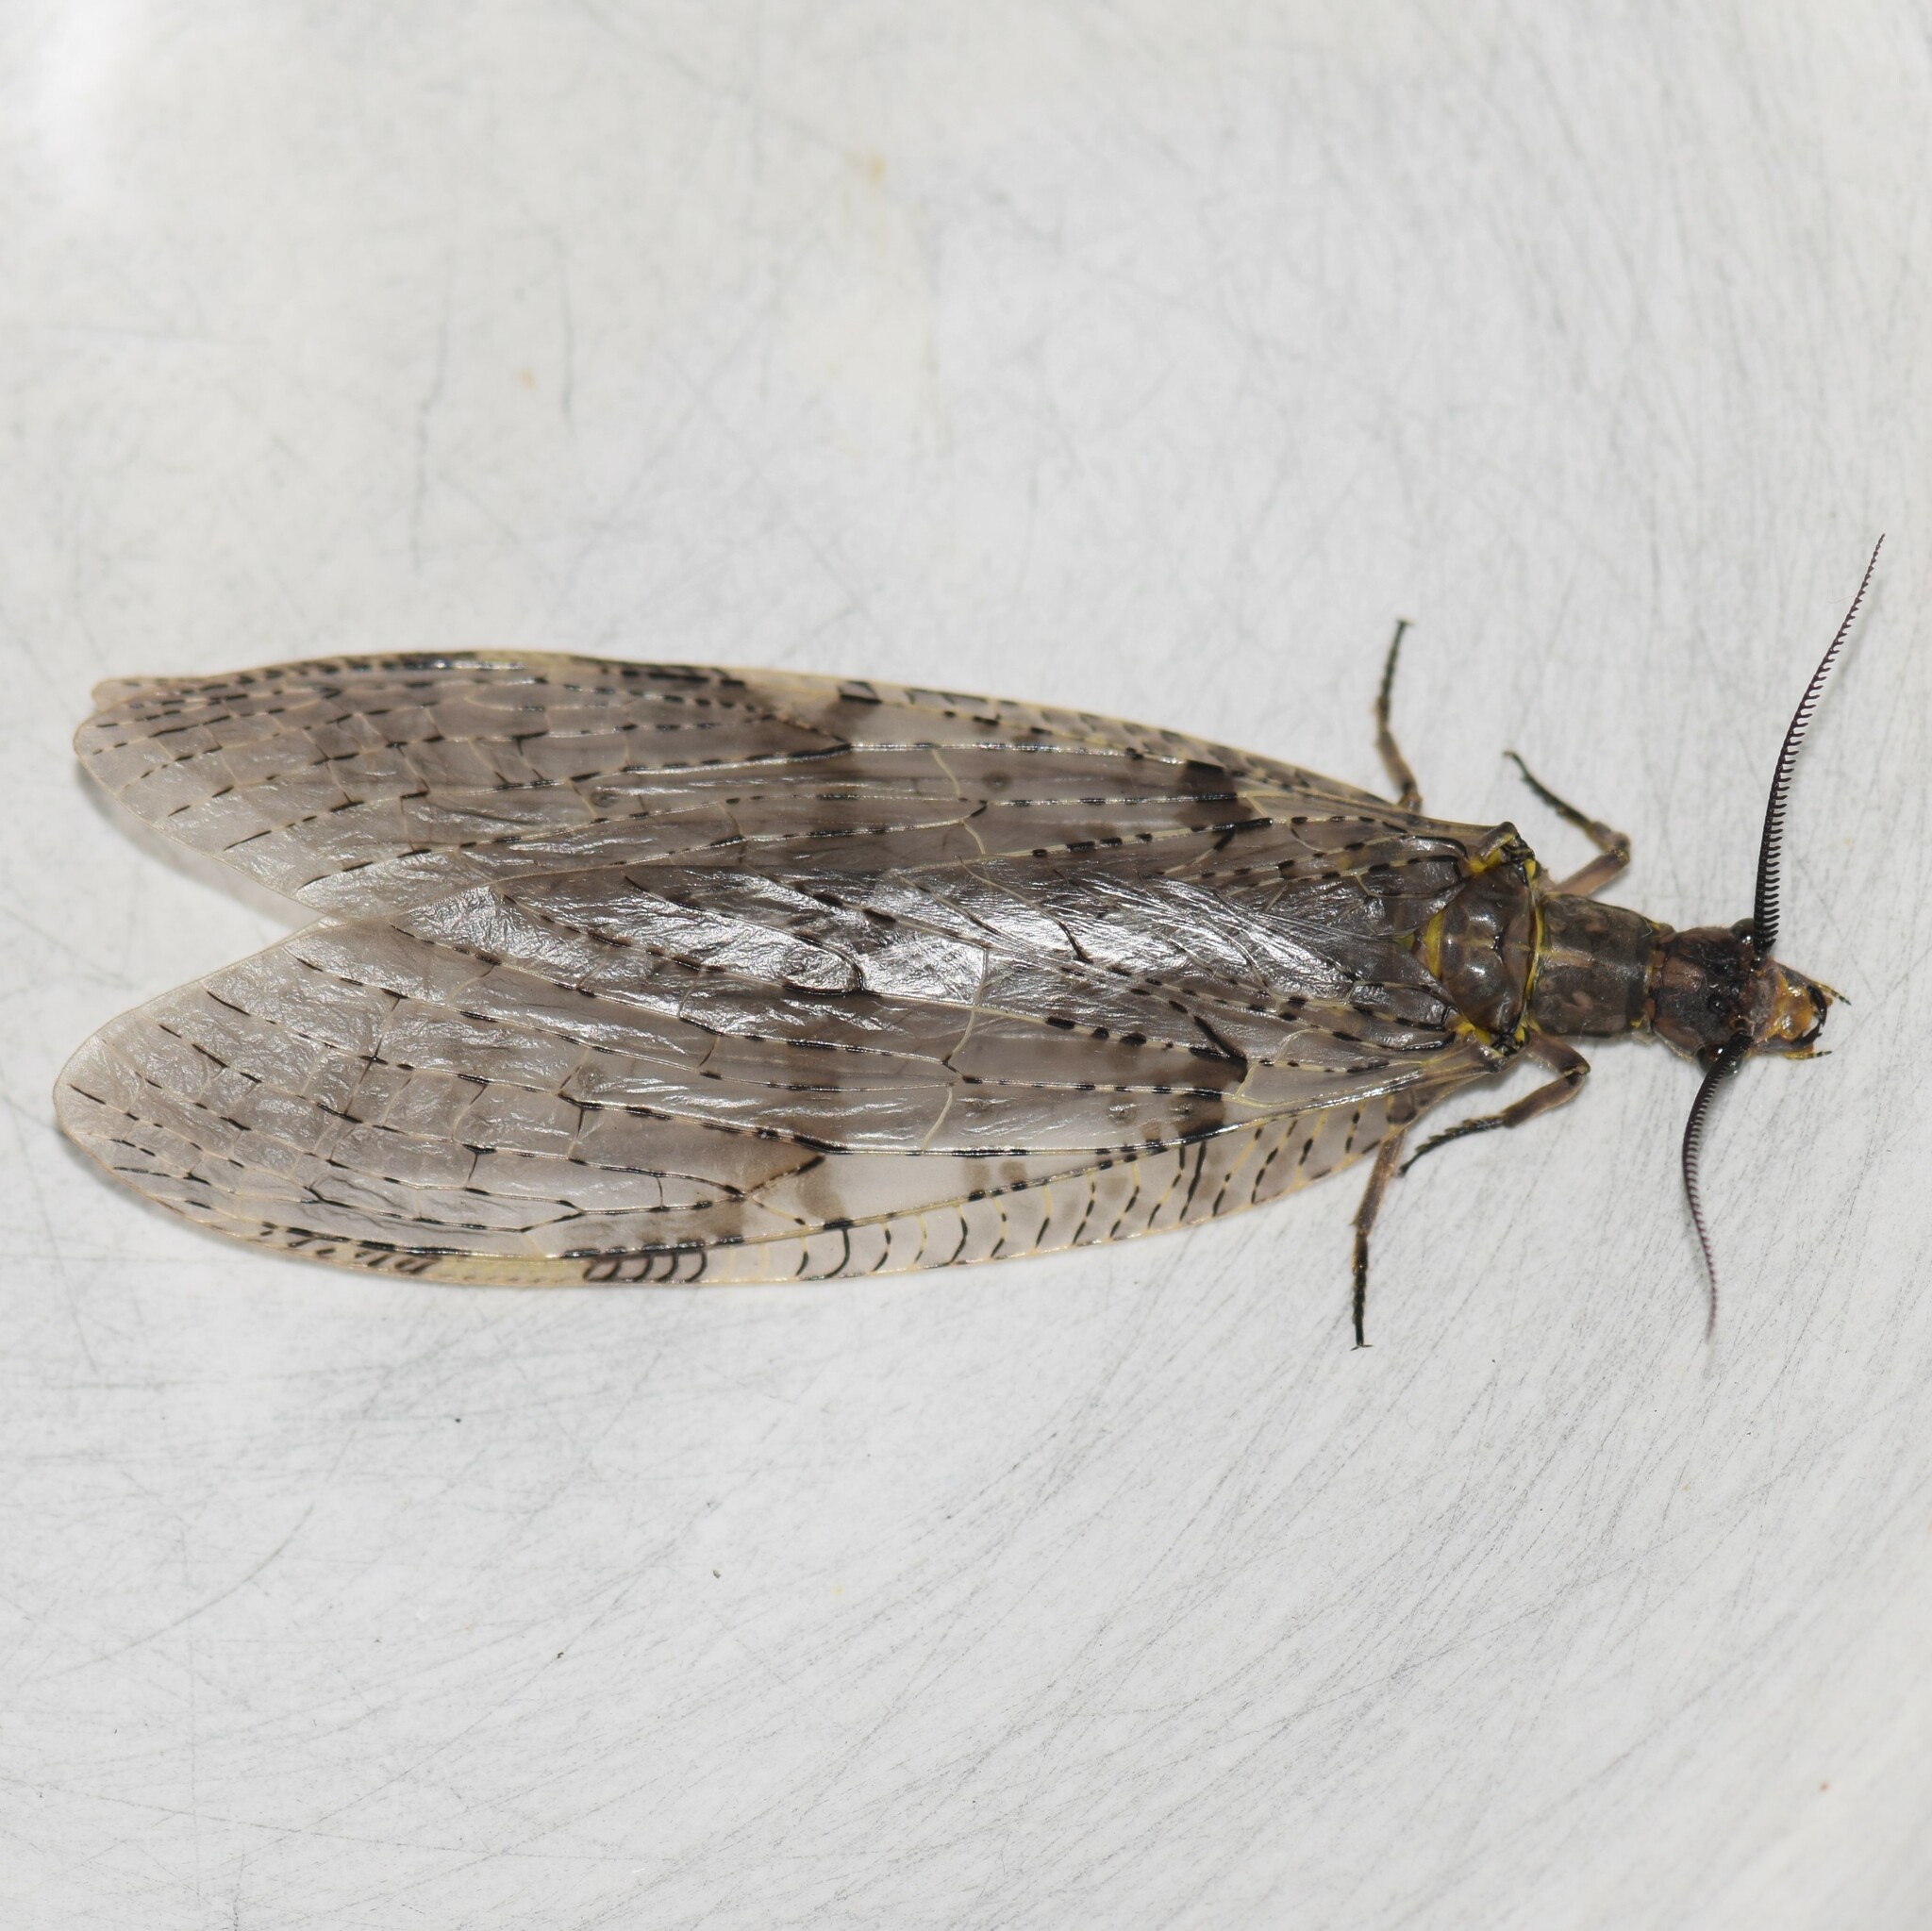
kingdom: Animalia
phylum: Arthropoda
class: Insecta
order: Megaloptera
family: Corydalidae
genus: Chauliodes
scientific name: Chauliodes pectinicornis
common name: Summer fishfly
